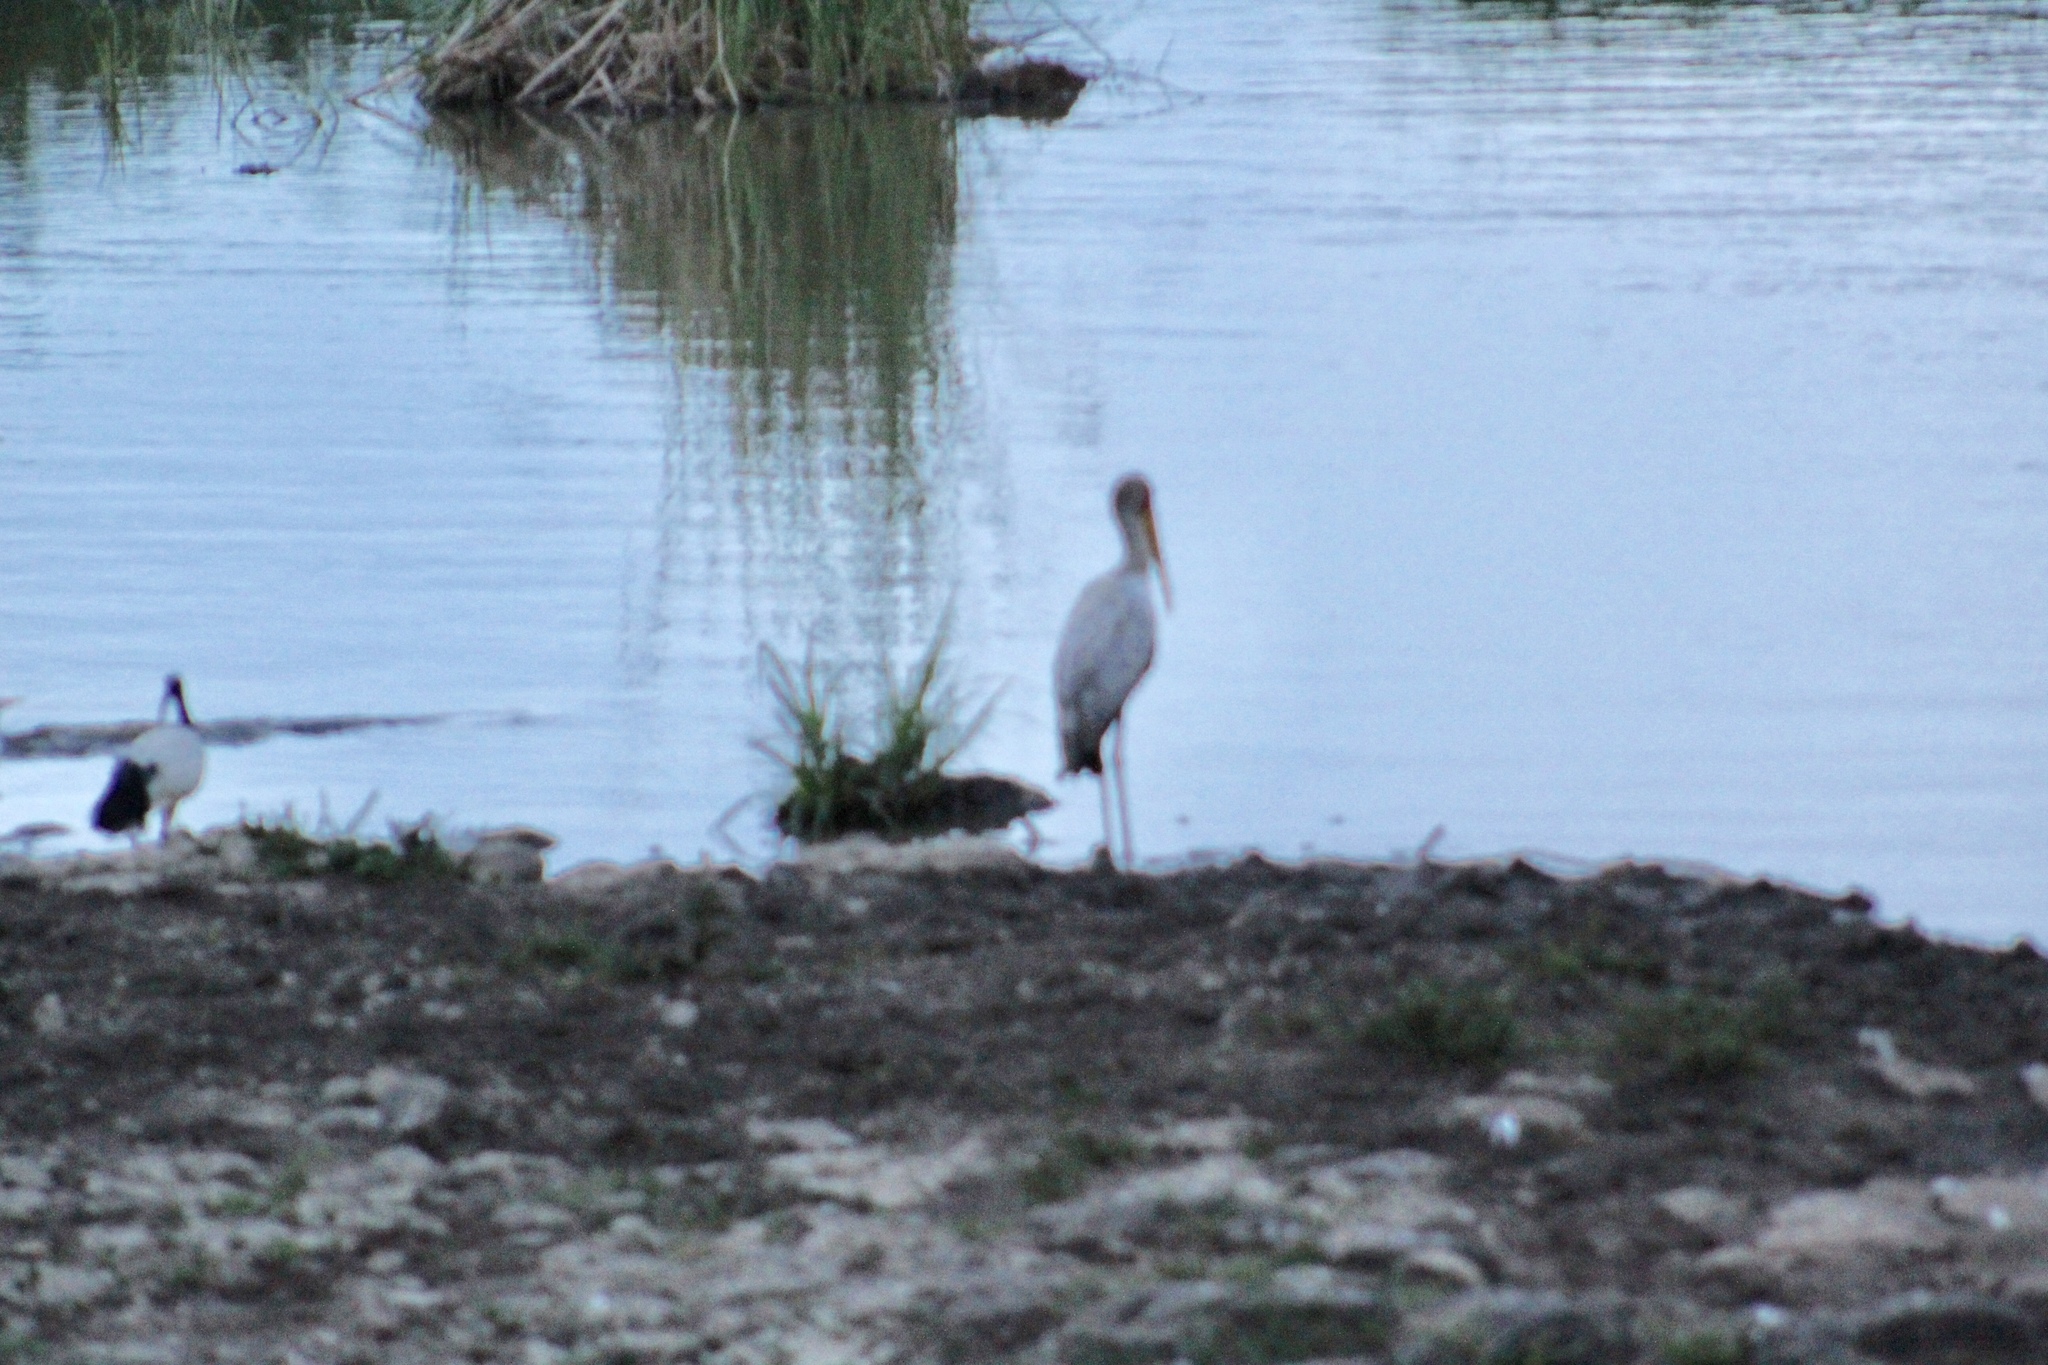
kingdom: Animalia
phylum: Chordata
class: Aves
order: Ciconiiformes
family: Ciconiidae
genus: Mycteria
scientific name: Mycteria ibis
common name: Yellow-billed stork
